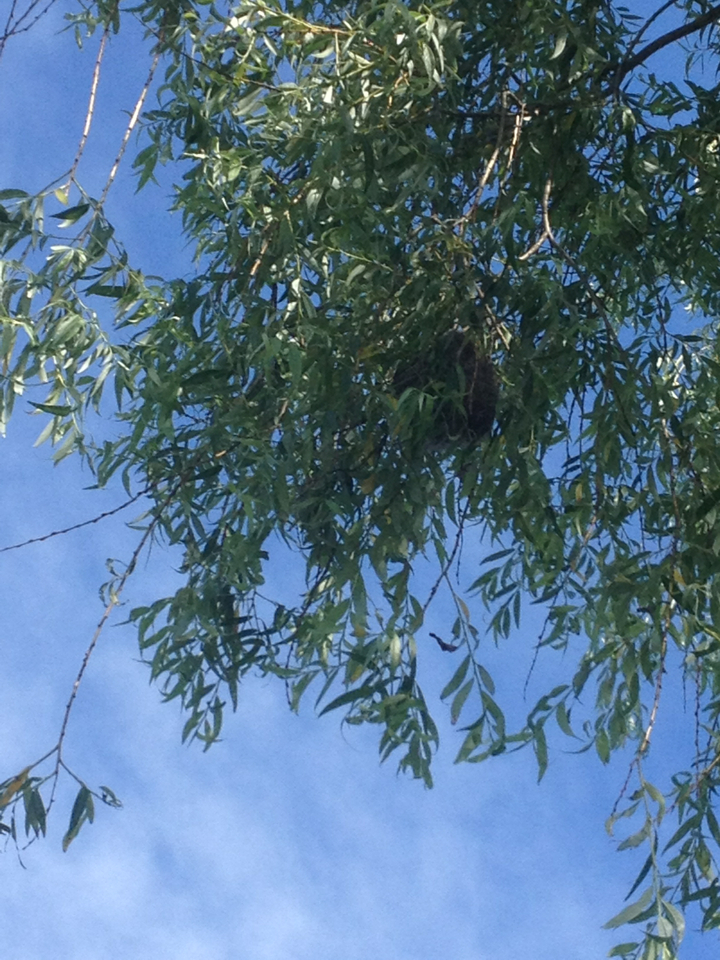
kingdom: Animalia
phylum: Chordata
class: Aves
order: Passeriformes
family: Icteridae
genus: Icterus
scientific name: Icterus galbula
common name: Baltimore oriole
